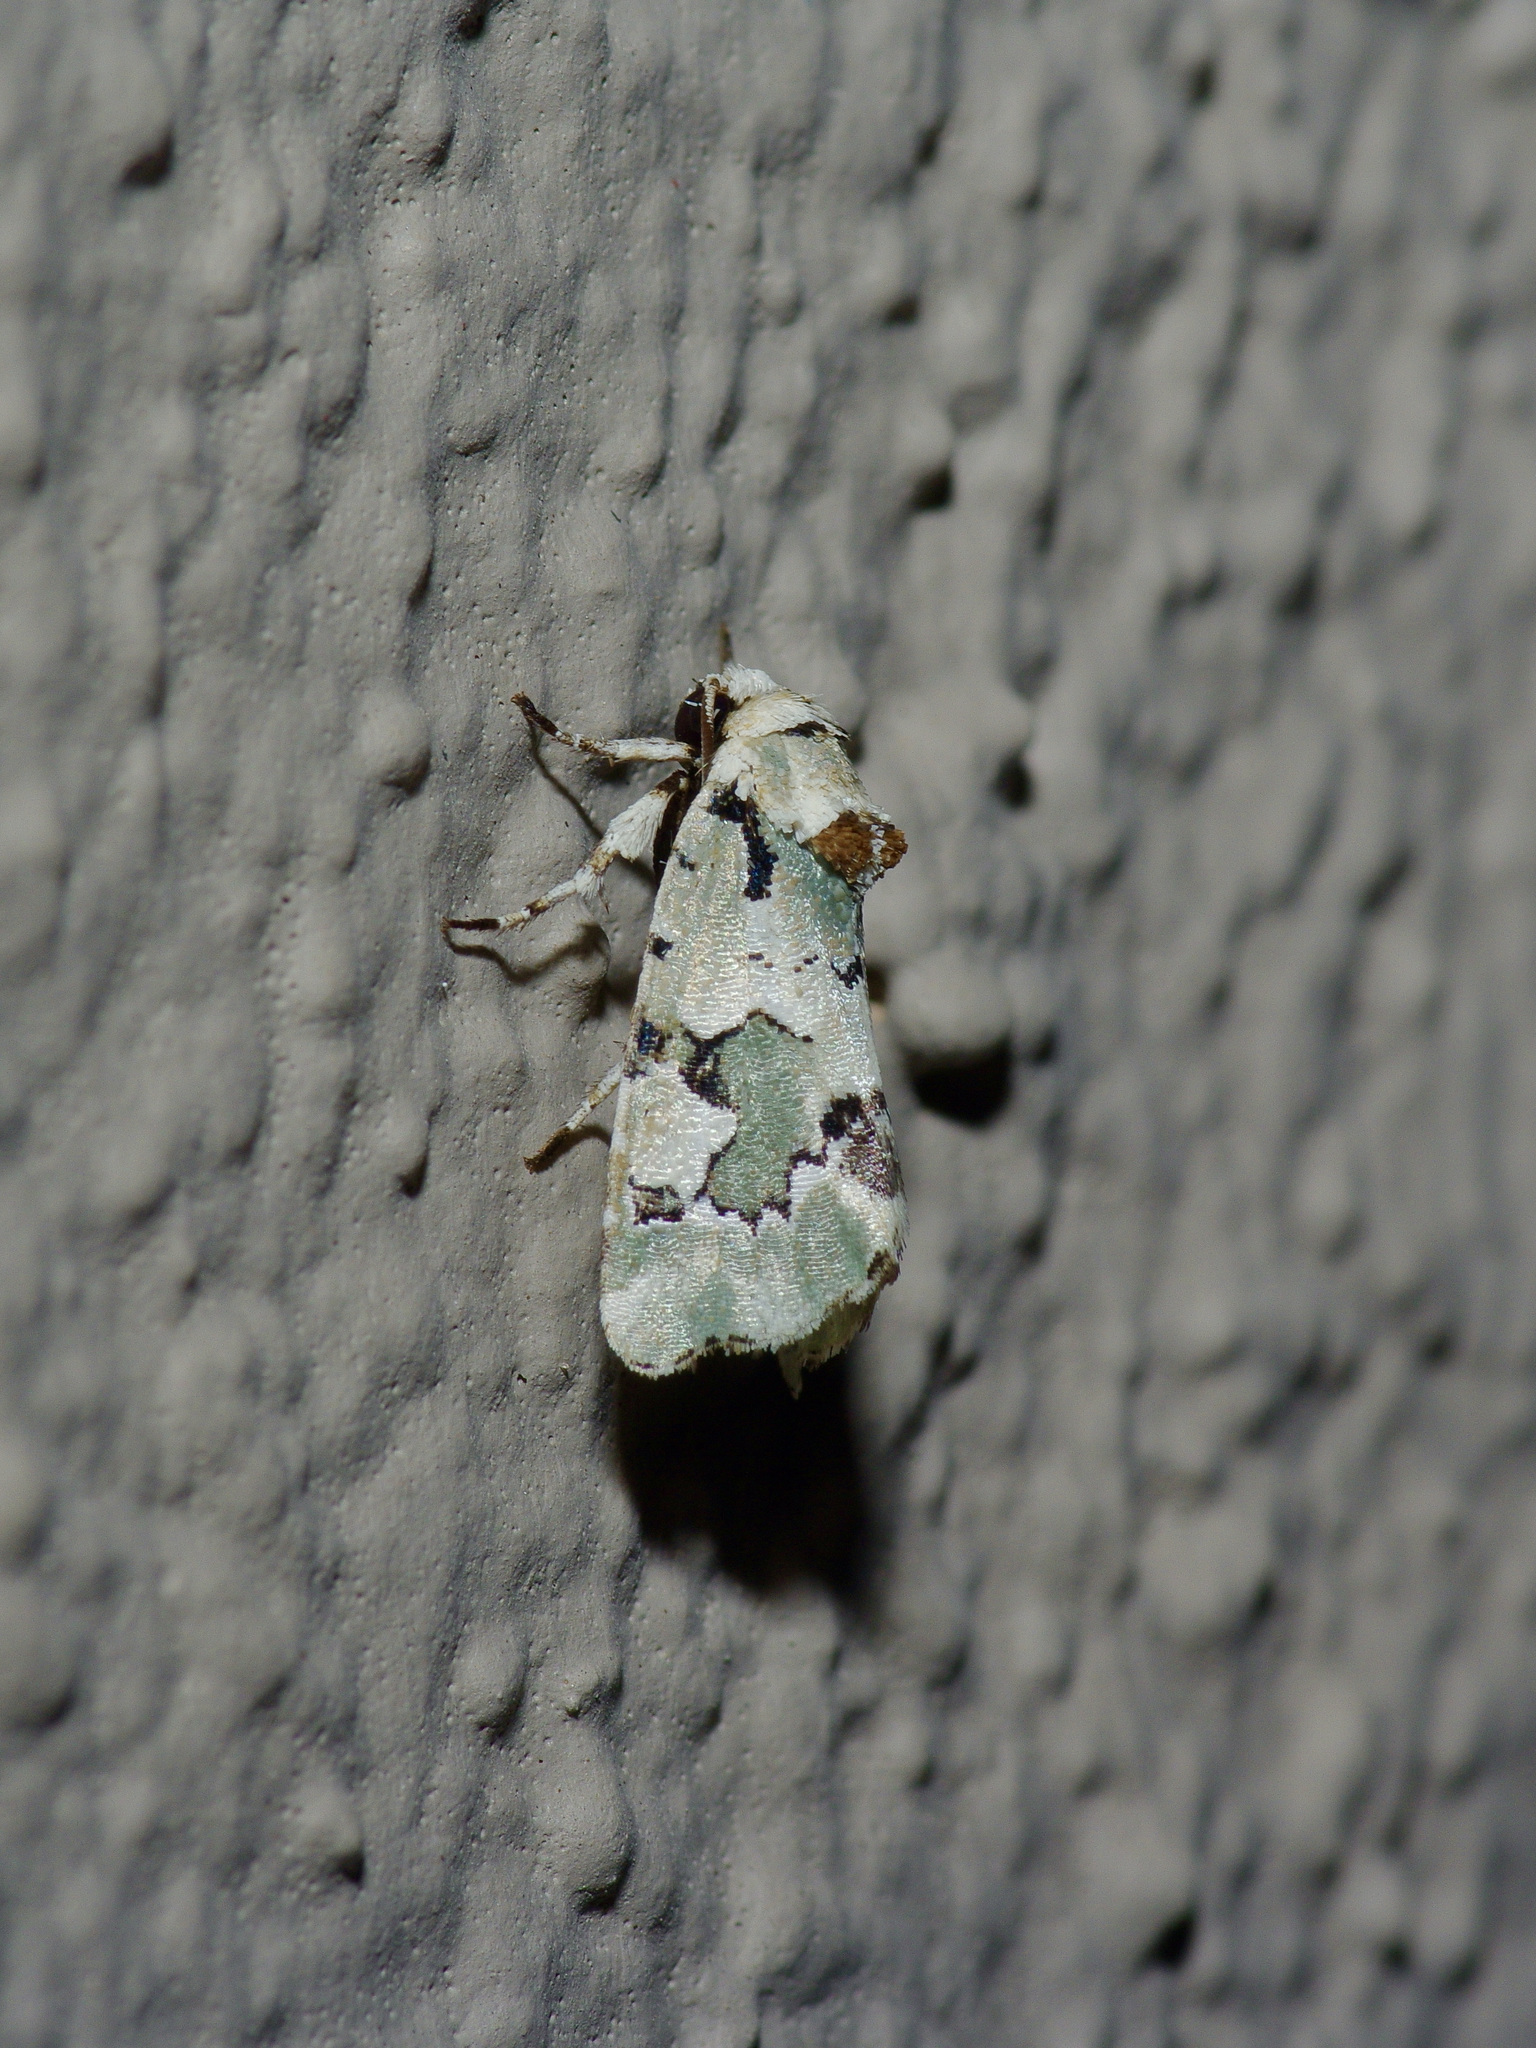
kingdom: Animalia
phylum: Arthropoda
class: Insecta
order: Lepidoptera
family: Noctuidae
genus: Emarginea
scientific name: Emarginea percara
